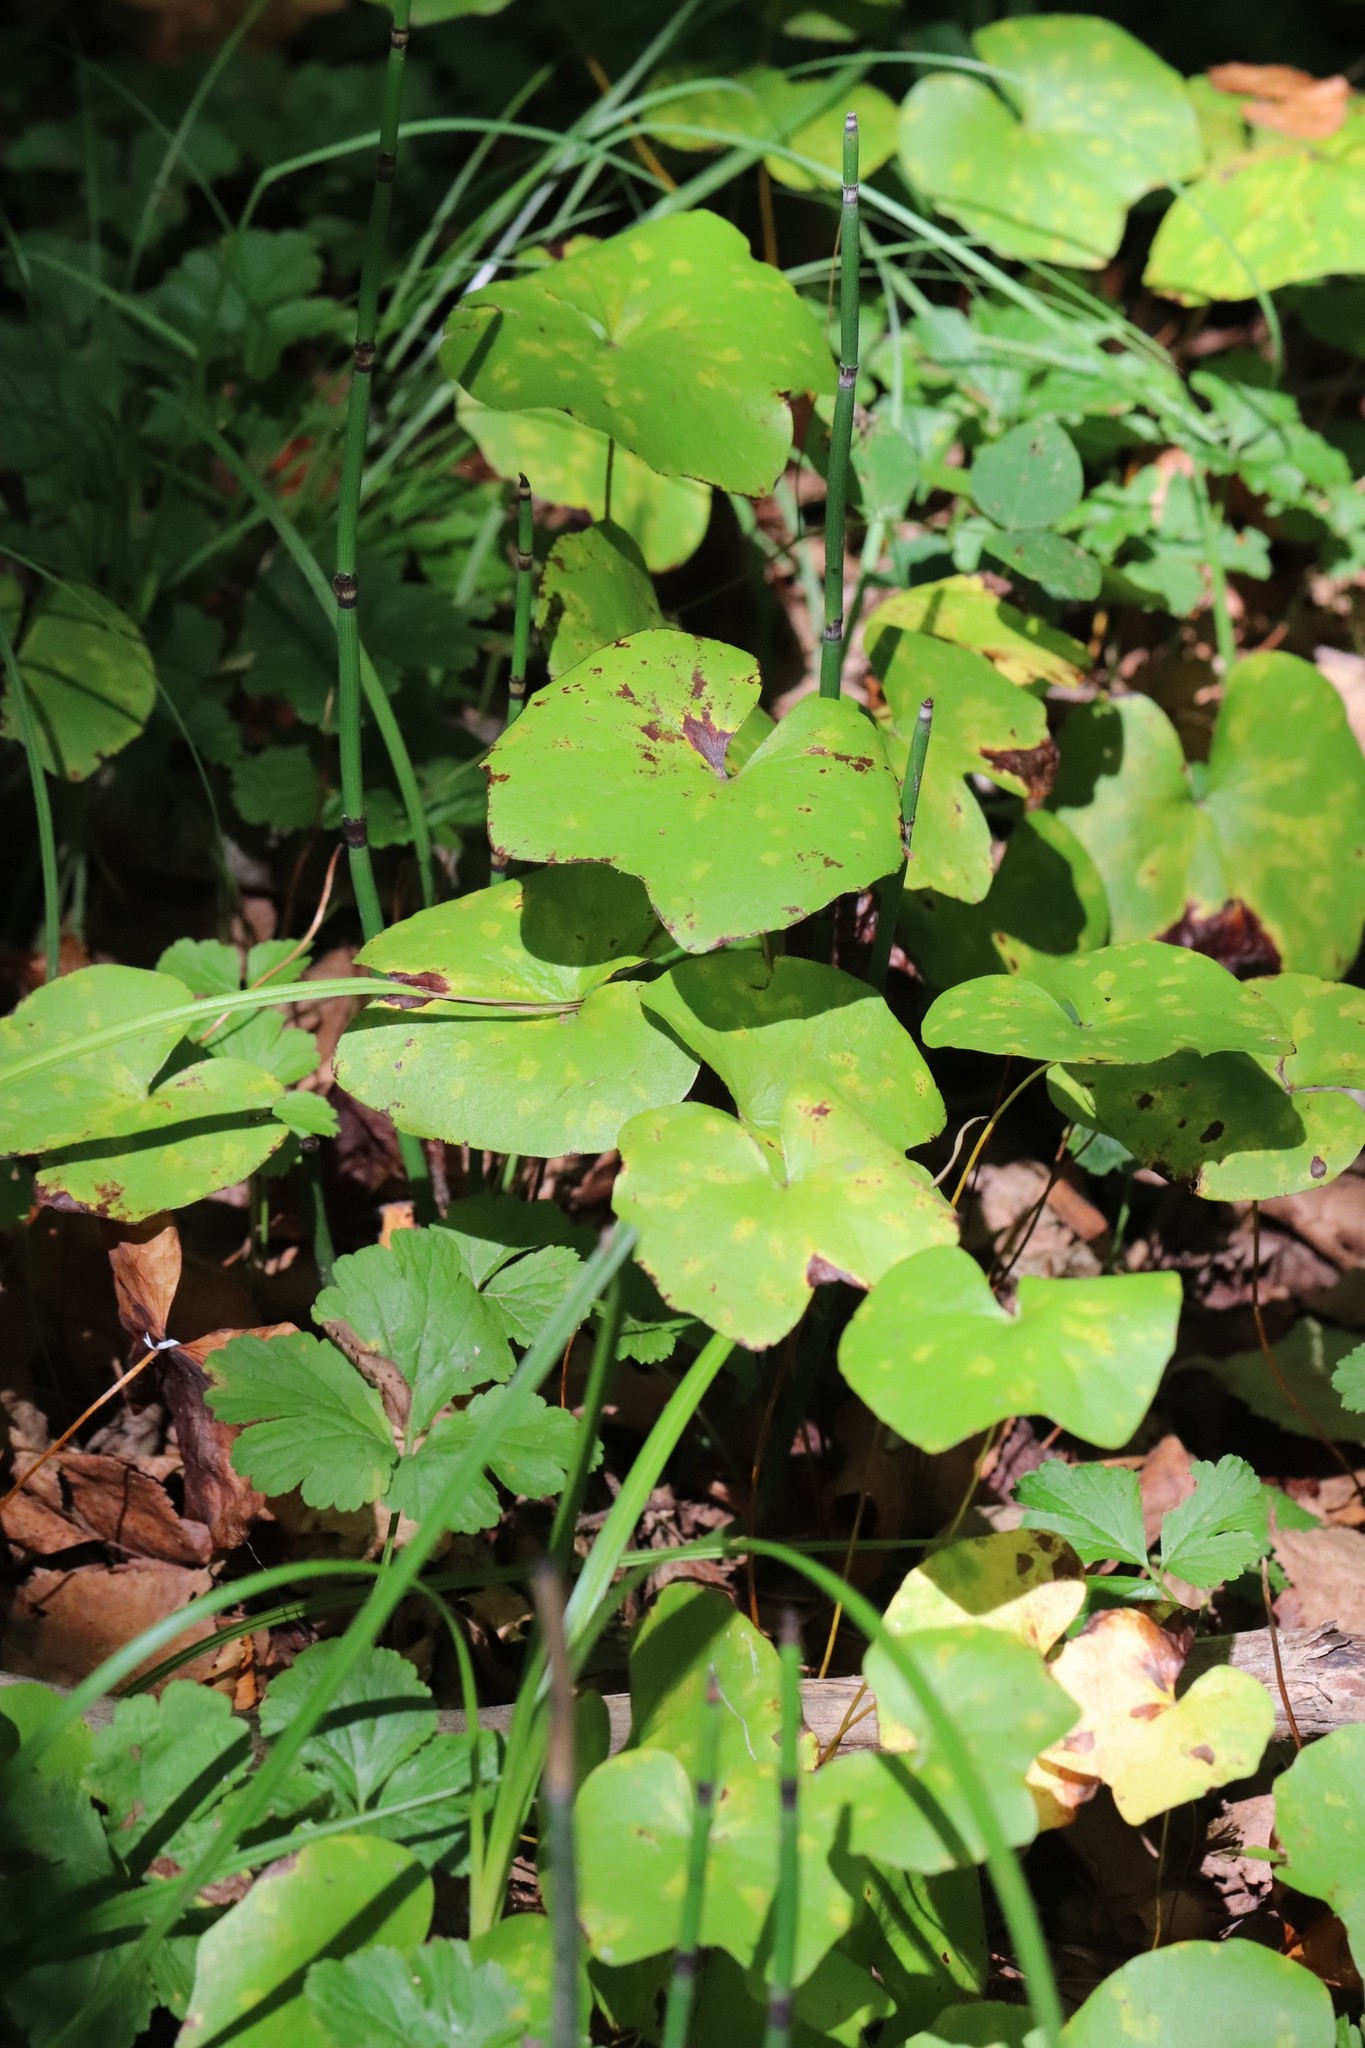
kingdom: Plantae
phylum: Tracheophyta
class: Magnoliopsida
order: Ranunculales
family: Berberidaceae
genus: Plagiorhegma
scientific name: Plagiorhegma dubium
